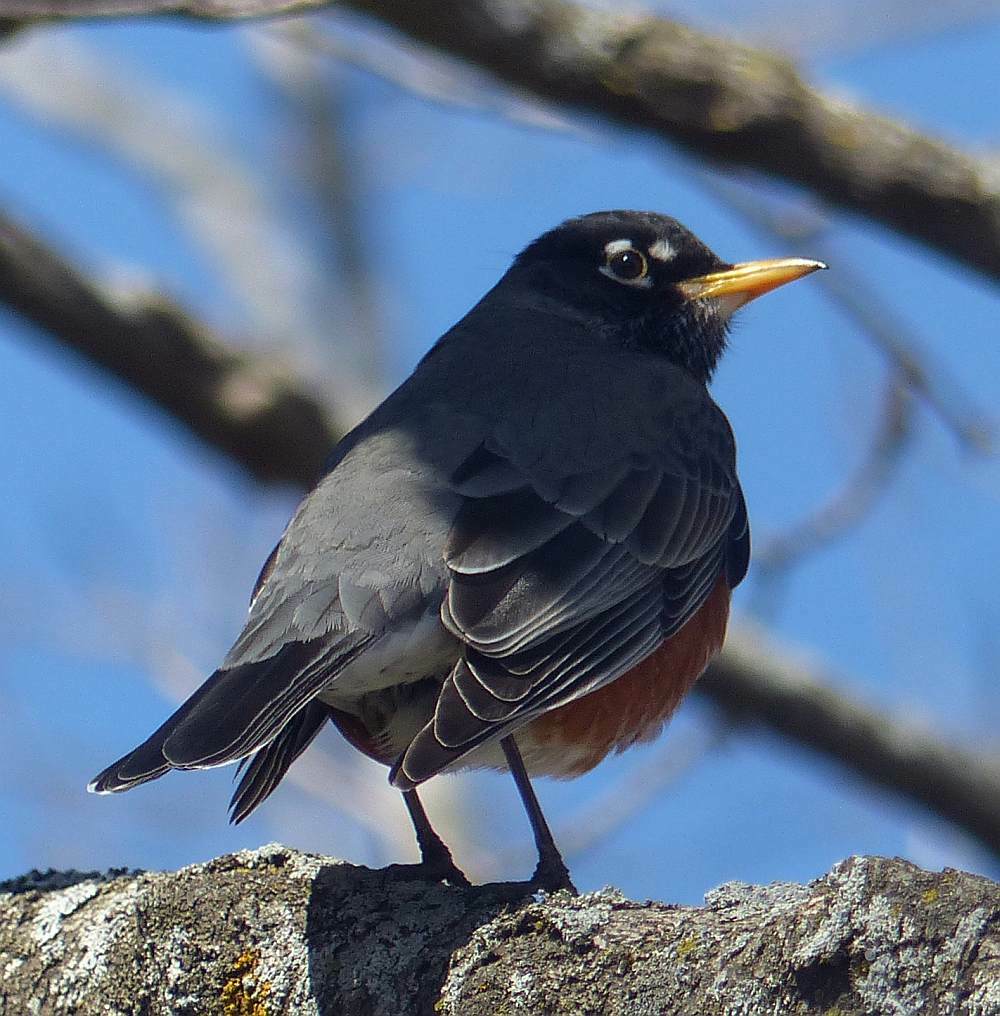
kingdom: Animalia
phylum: Chordata
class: Aves
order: Passeriformes
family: Turdidae
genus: Turdus
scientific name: Turdus migratorius
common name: American robin
